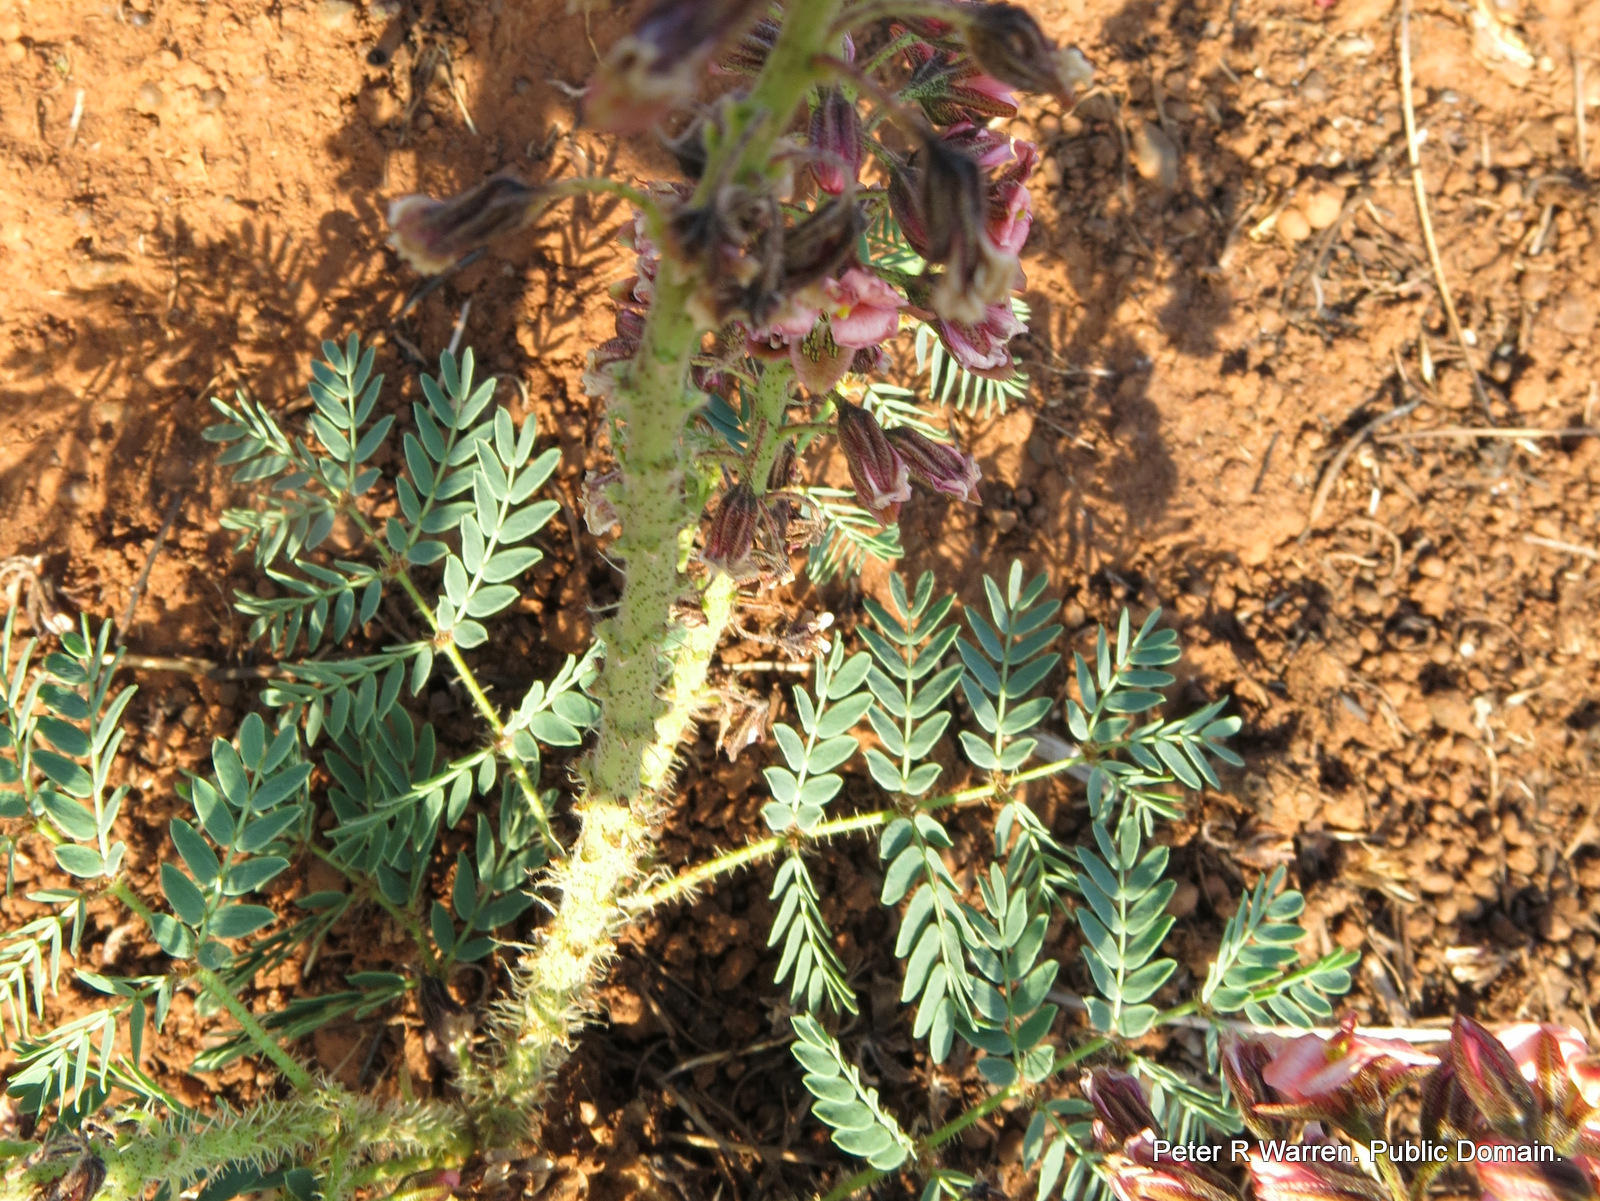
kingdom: Plantae
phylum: Tracheophyta
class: Magnoliopsida
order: Fabales
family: Fabaceae
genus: Pomaria
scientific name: Pomaria sandersonii
